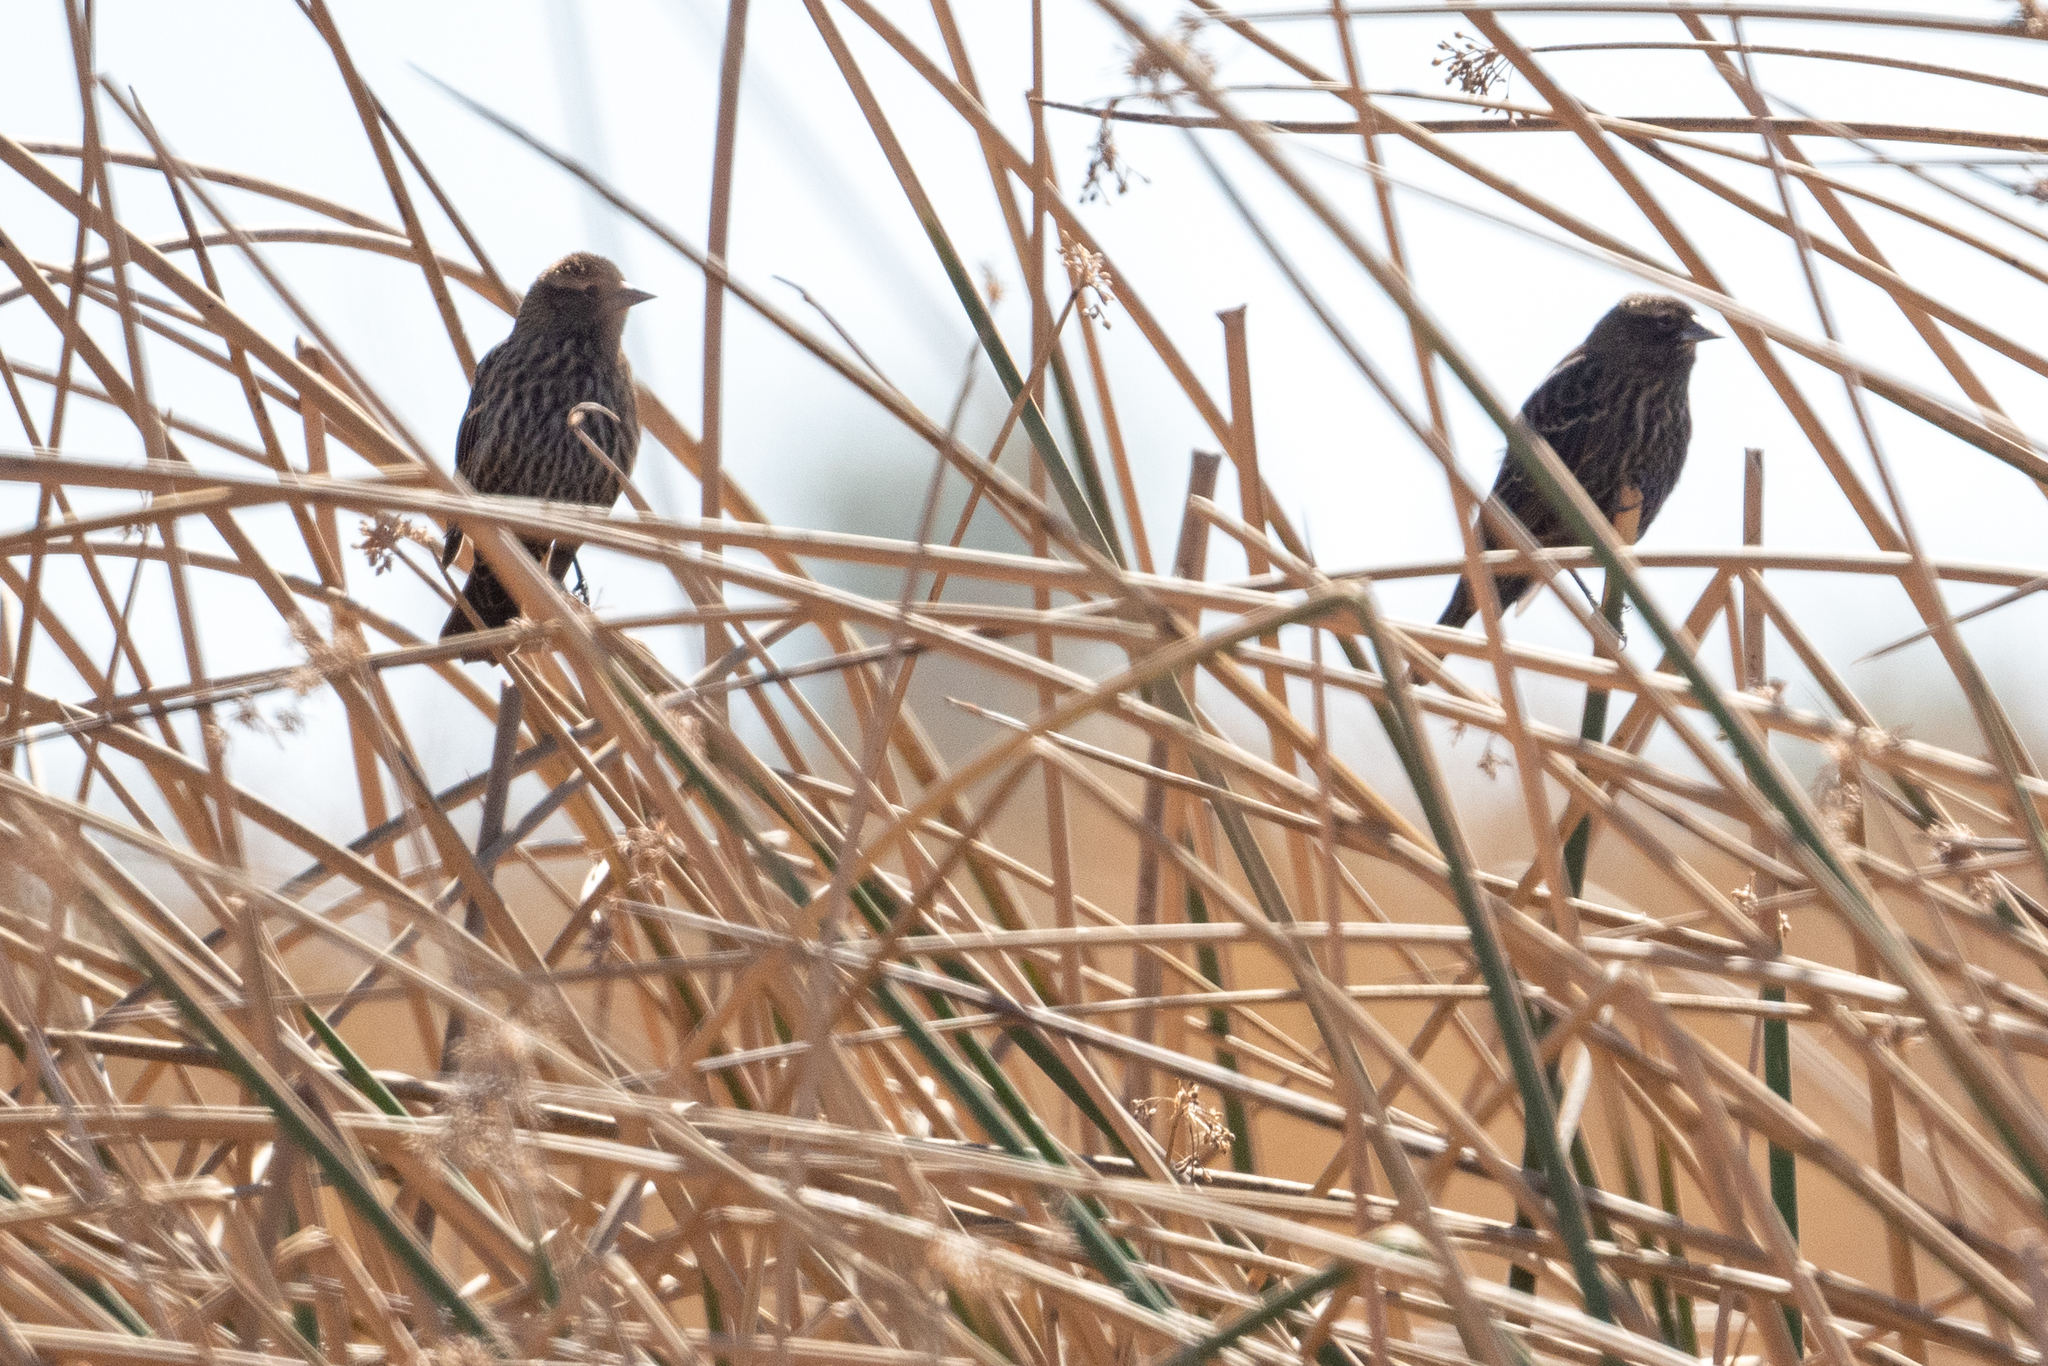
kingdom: Animalia
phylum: Chordata
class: Aves
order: Passeriformes
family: Icteridae
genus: Agelaius
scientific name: Agelaius phoeniceus
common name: Red-winged blackbird
